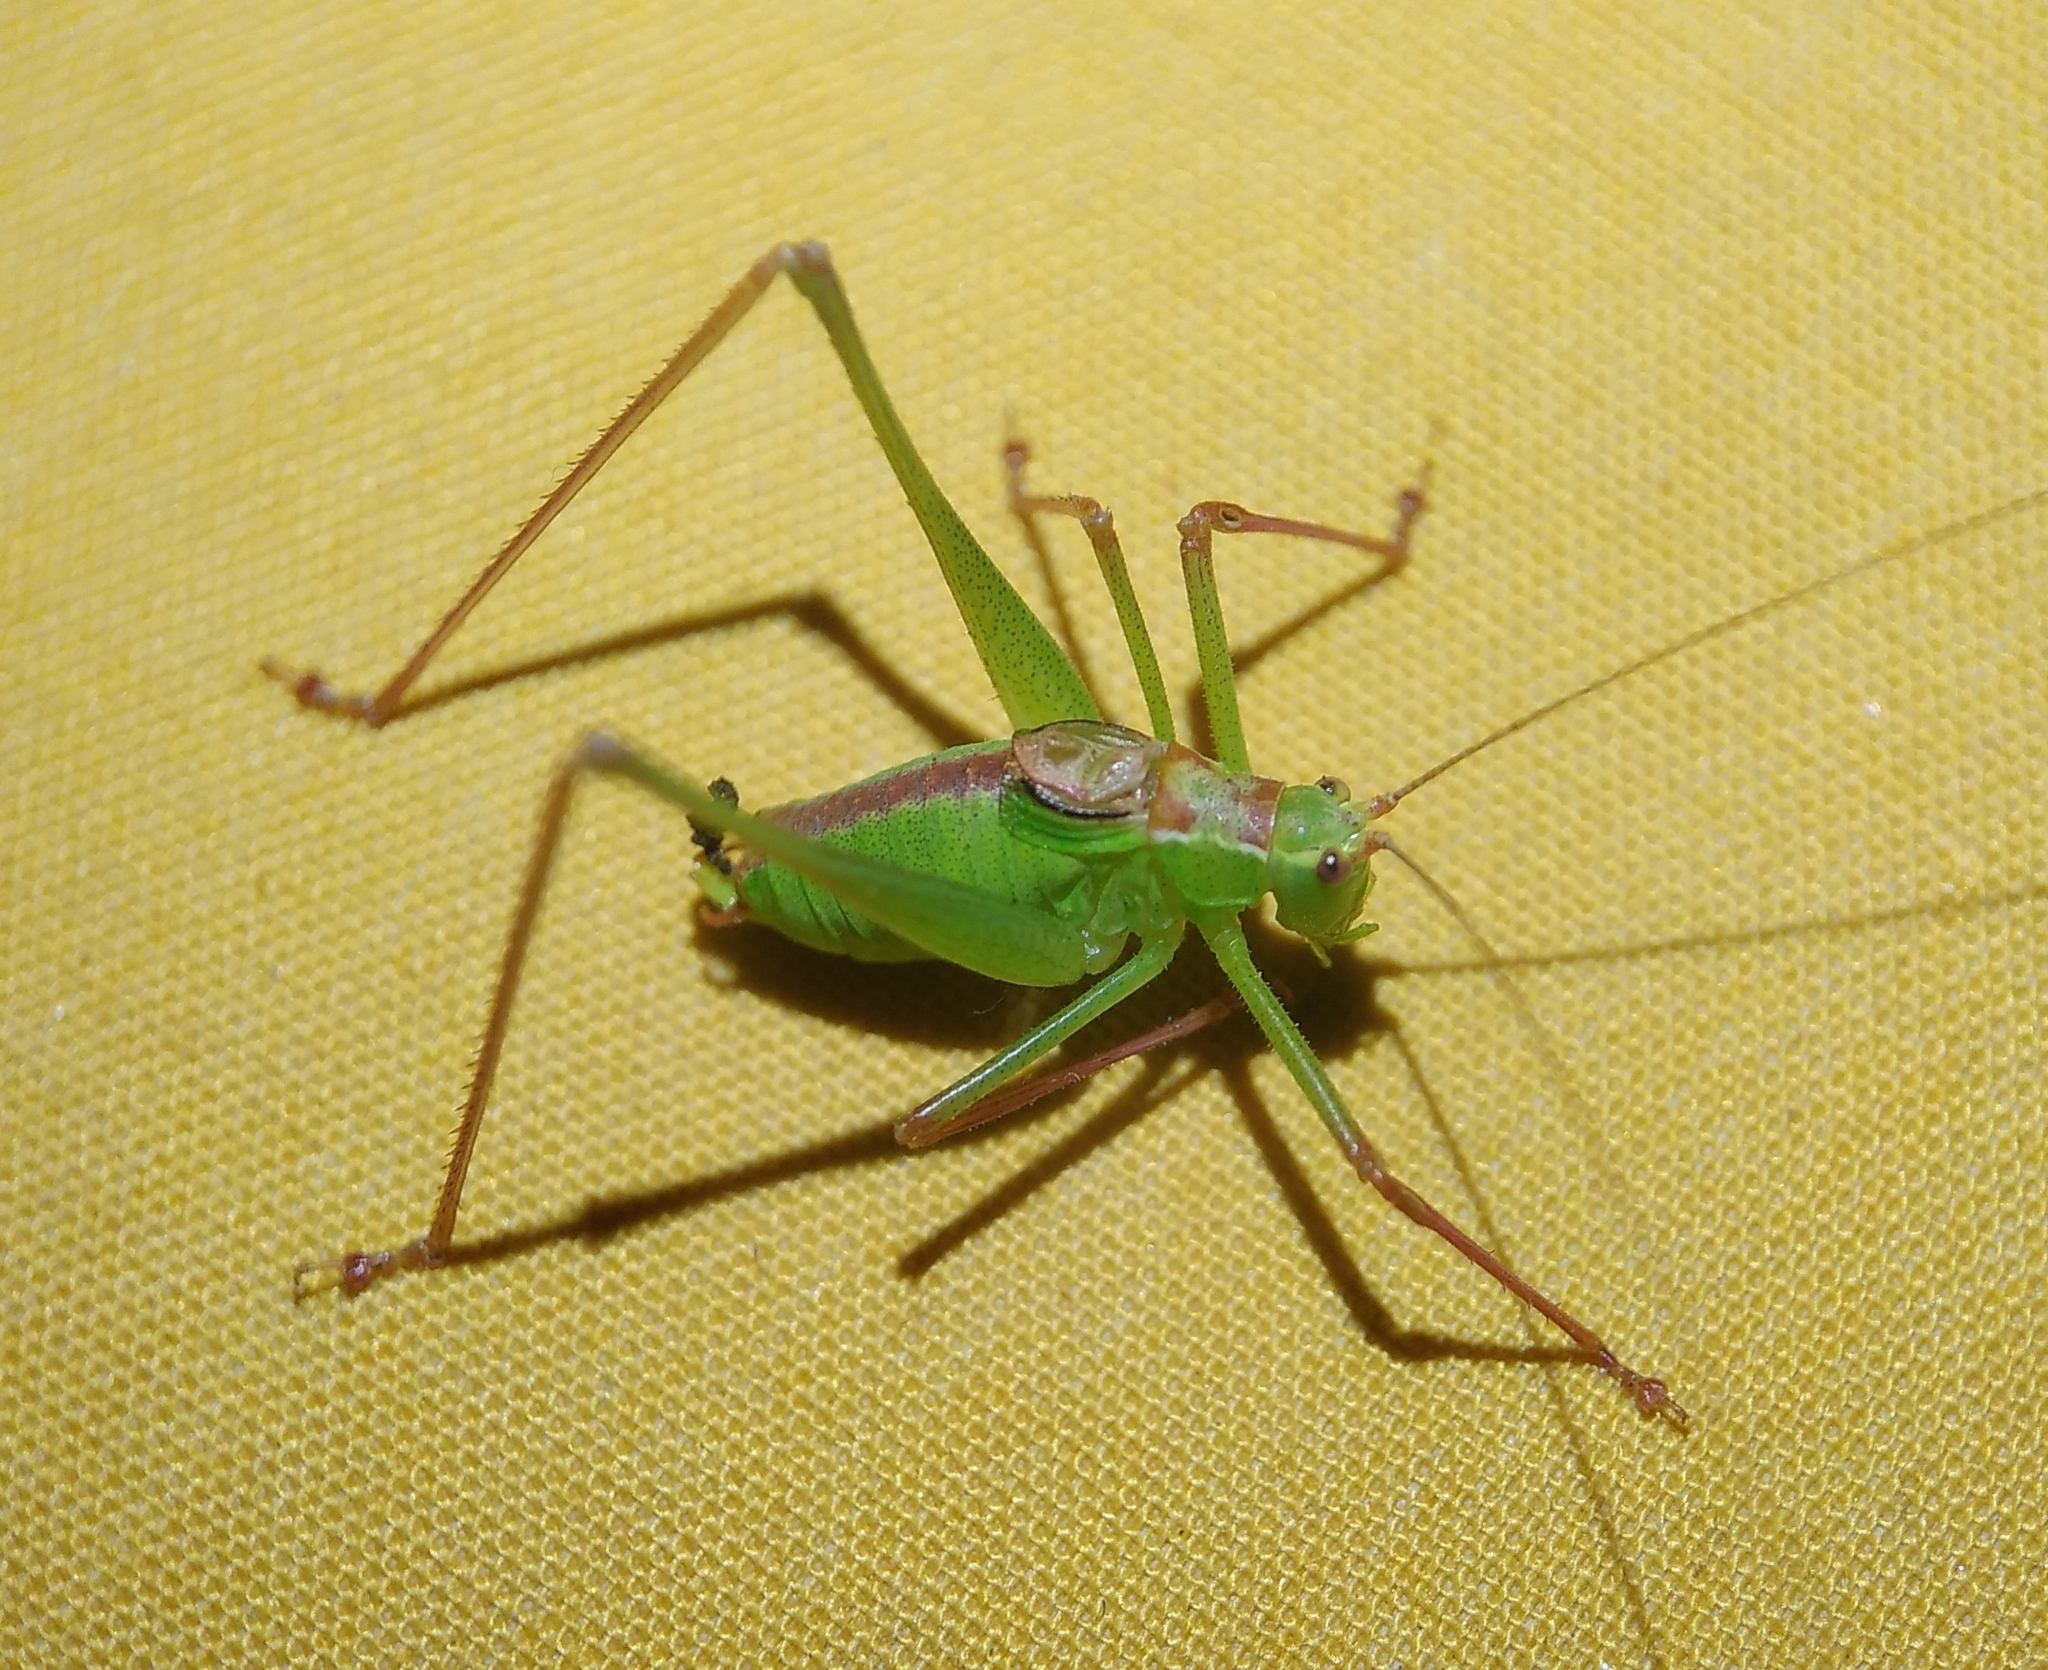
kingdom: Animalia
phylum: Arthropoda
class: Insecta
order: Orthoptera
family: Tettigoniidae
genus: Leptophyes
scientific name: Leptophyes punctatissima
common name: Speckled bush-cricket
